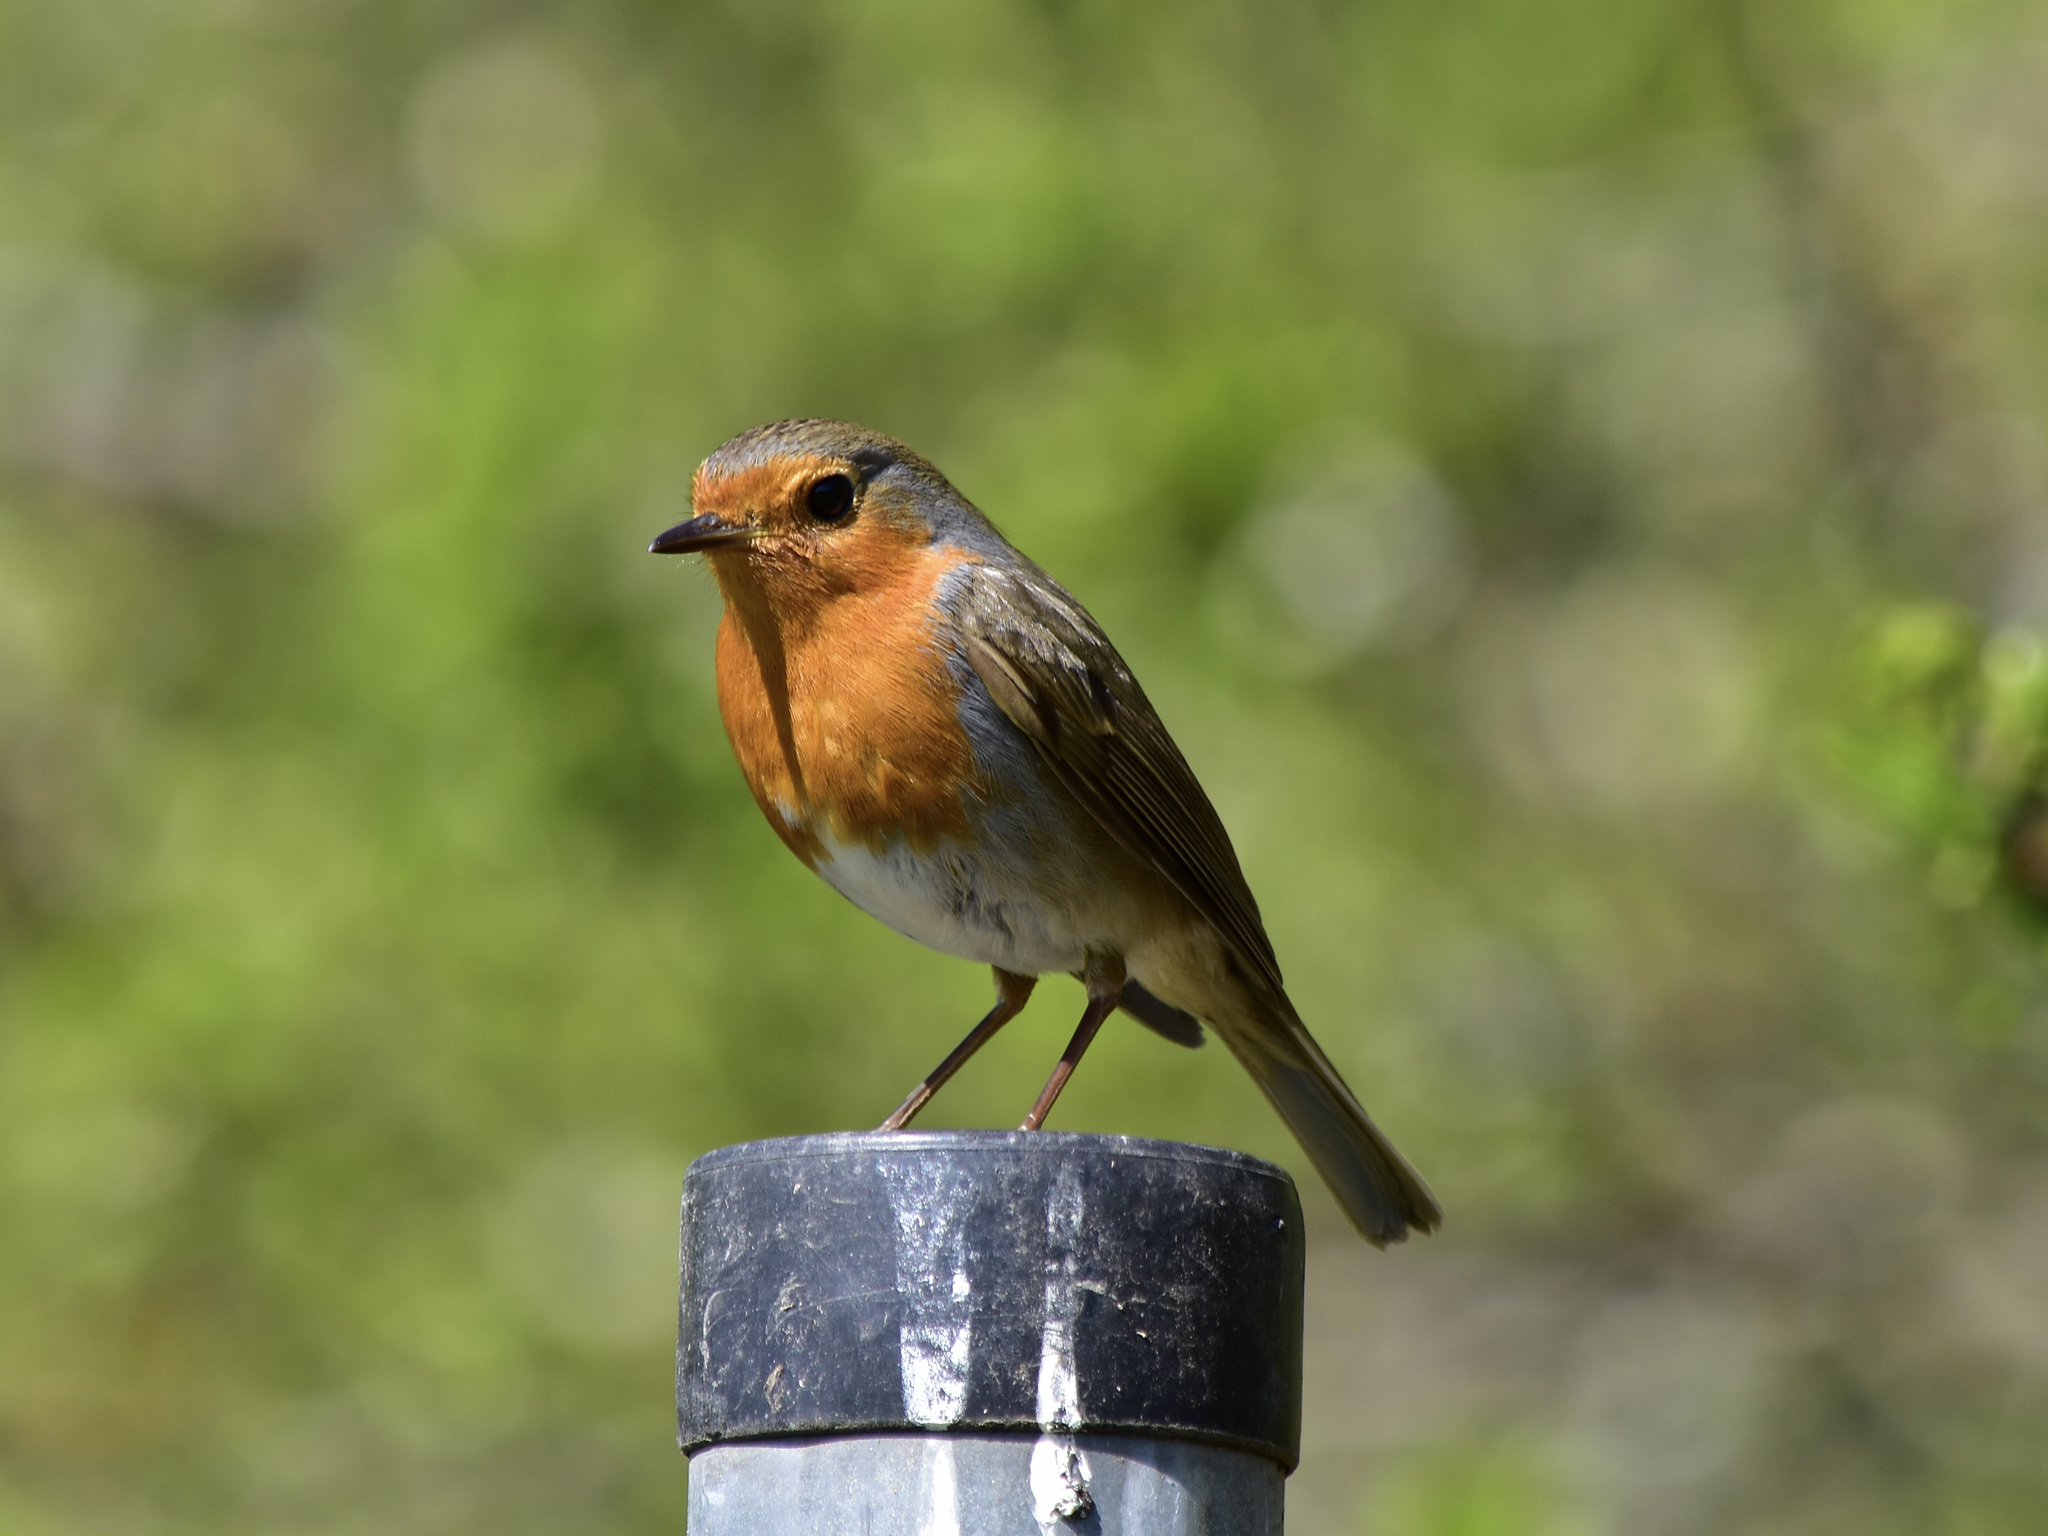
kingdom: Animalia
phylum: Chordata
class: Aves
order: Passeriformes
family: Muscicapidae
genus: Erithacus
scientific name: Erithacus rubecula
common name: European robin
